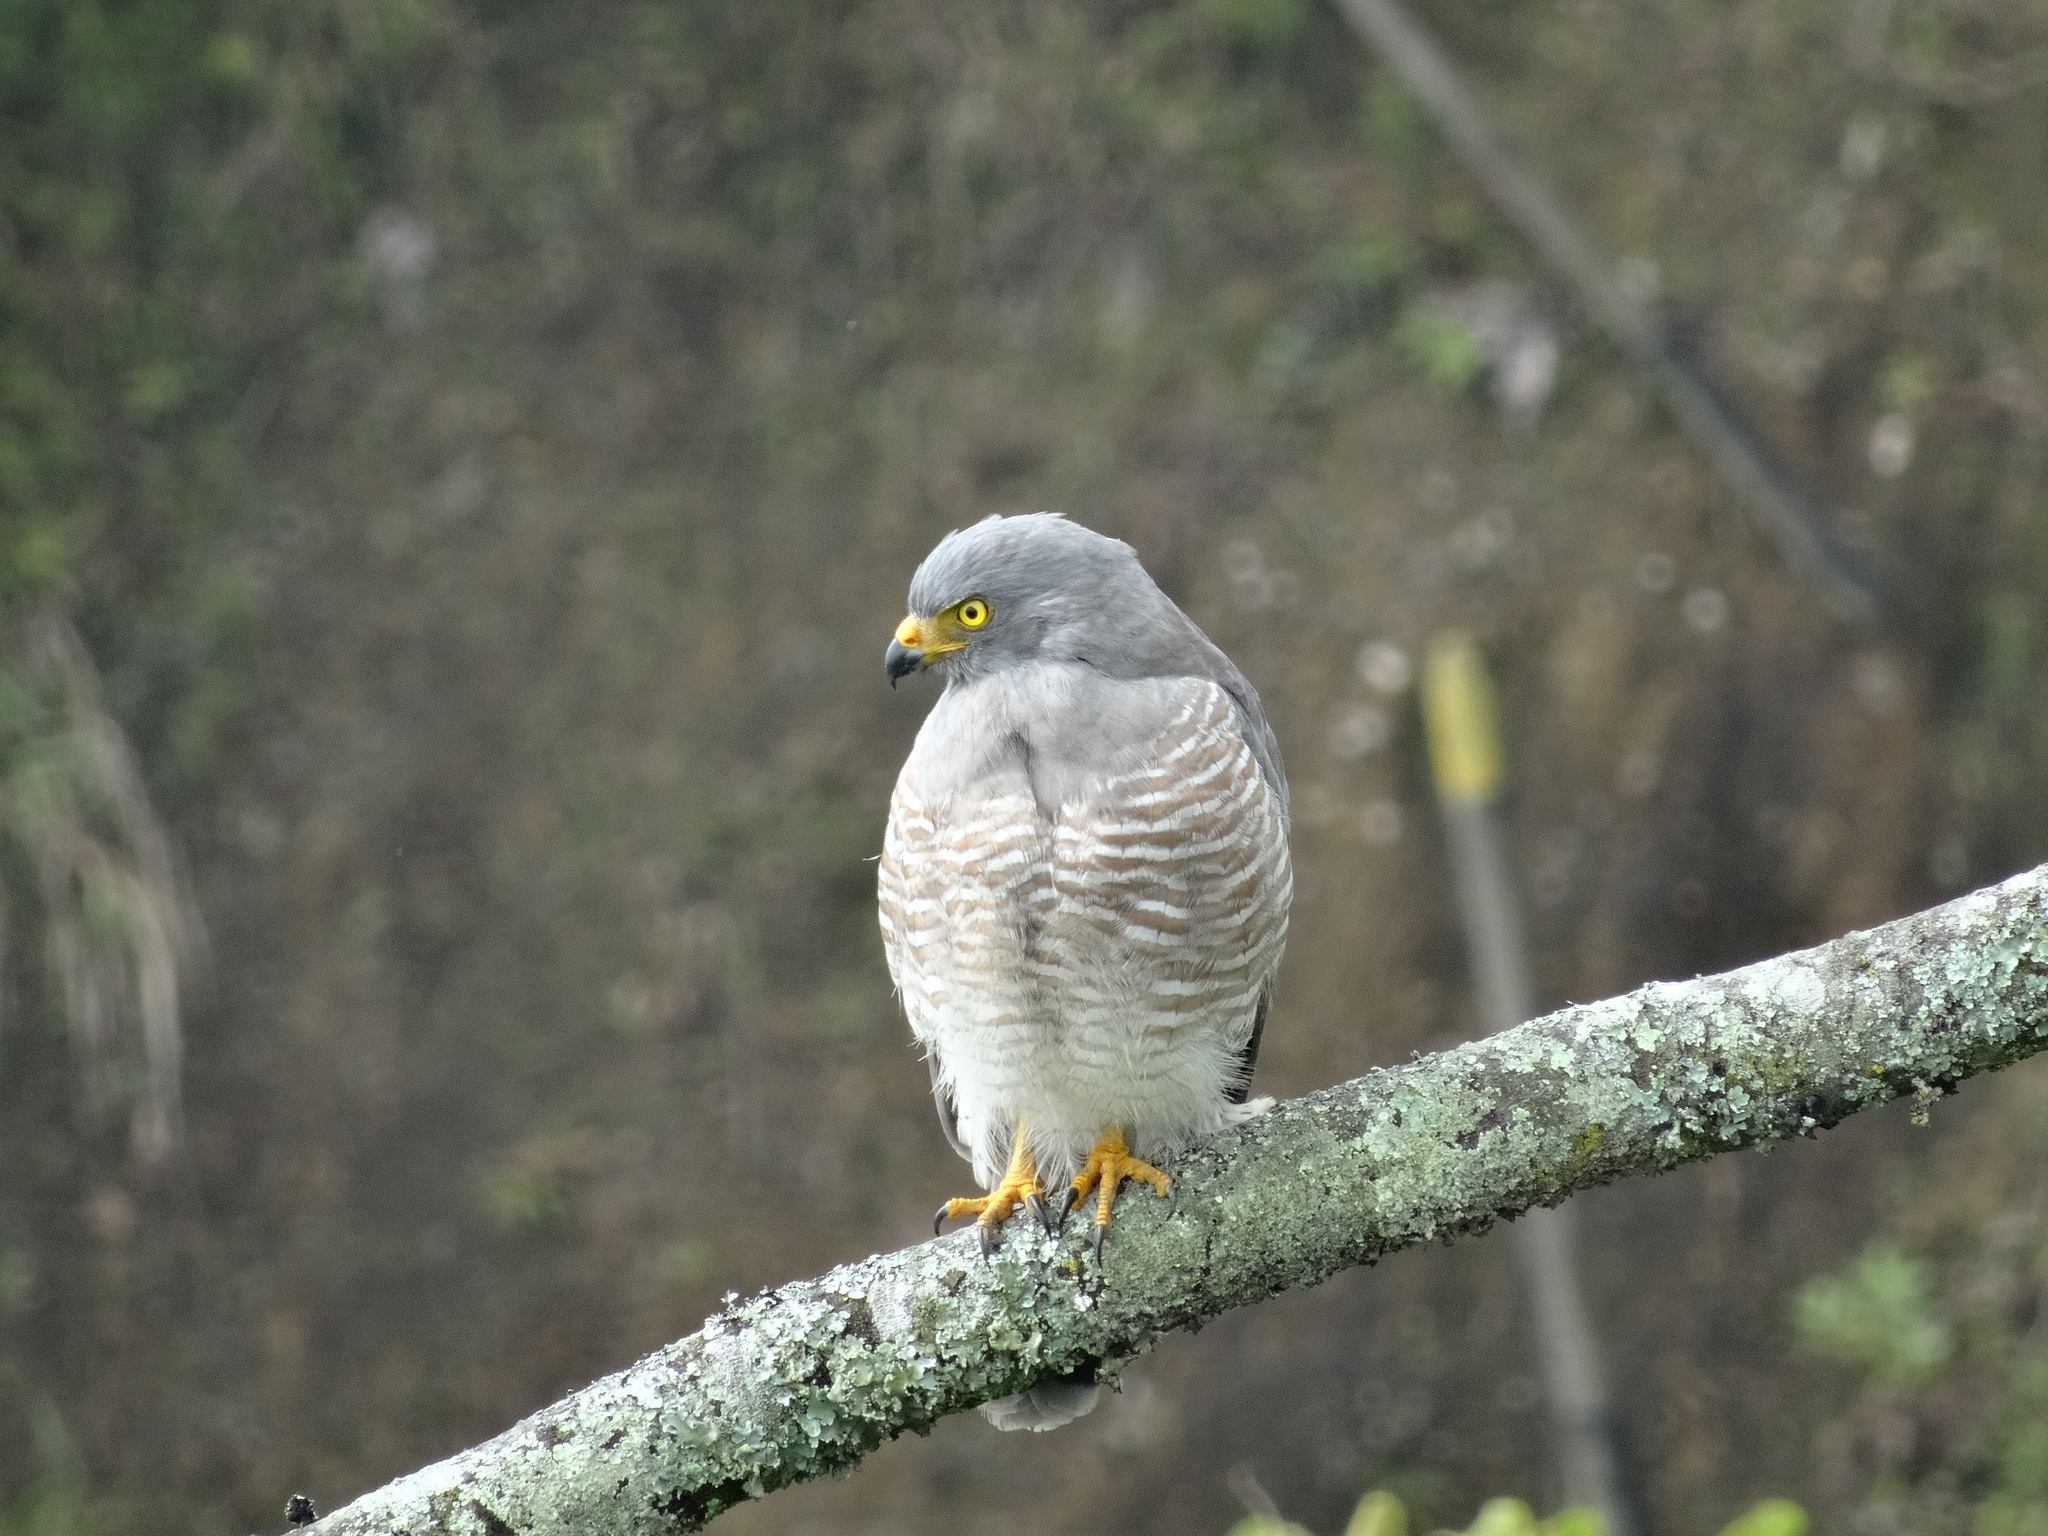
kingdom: Animalia
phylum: Chordata
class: Aves
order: Accipitriformes
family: Accipitridae
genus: Rupornis
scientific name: Rupornis magnirostris
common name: Roadside hawk
